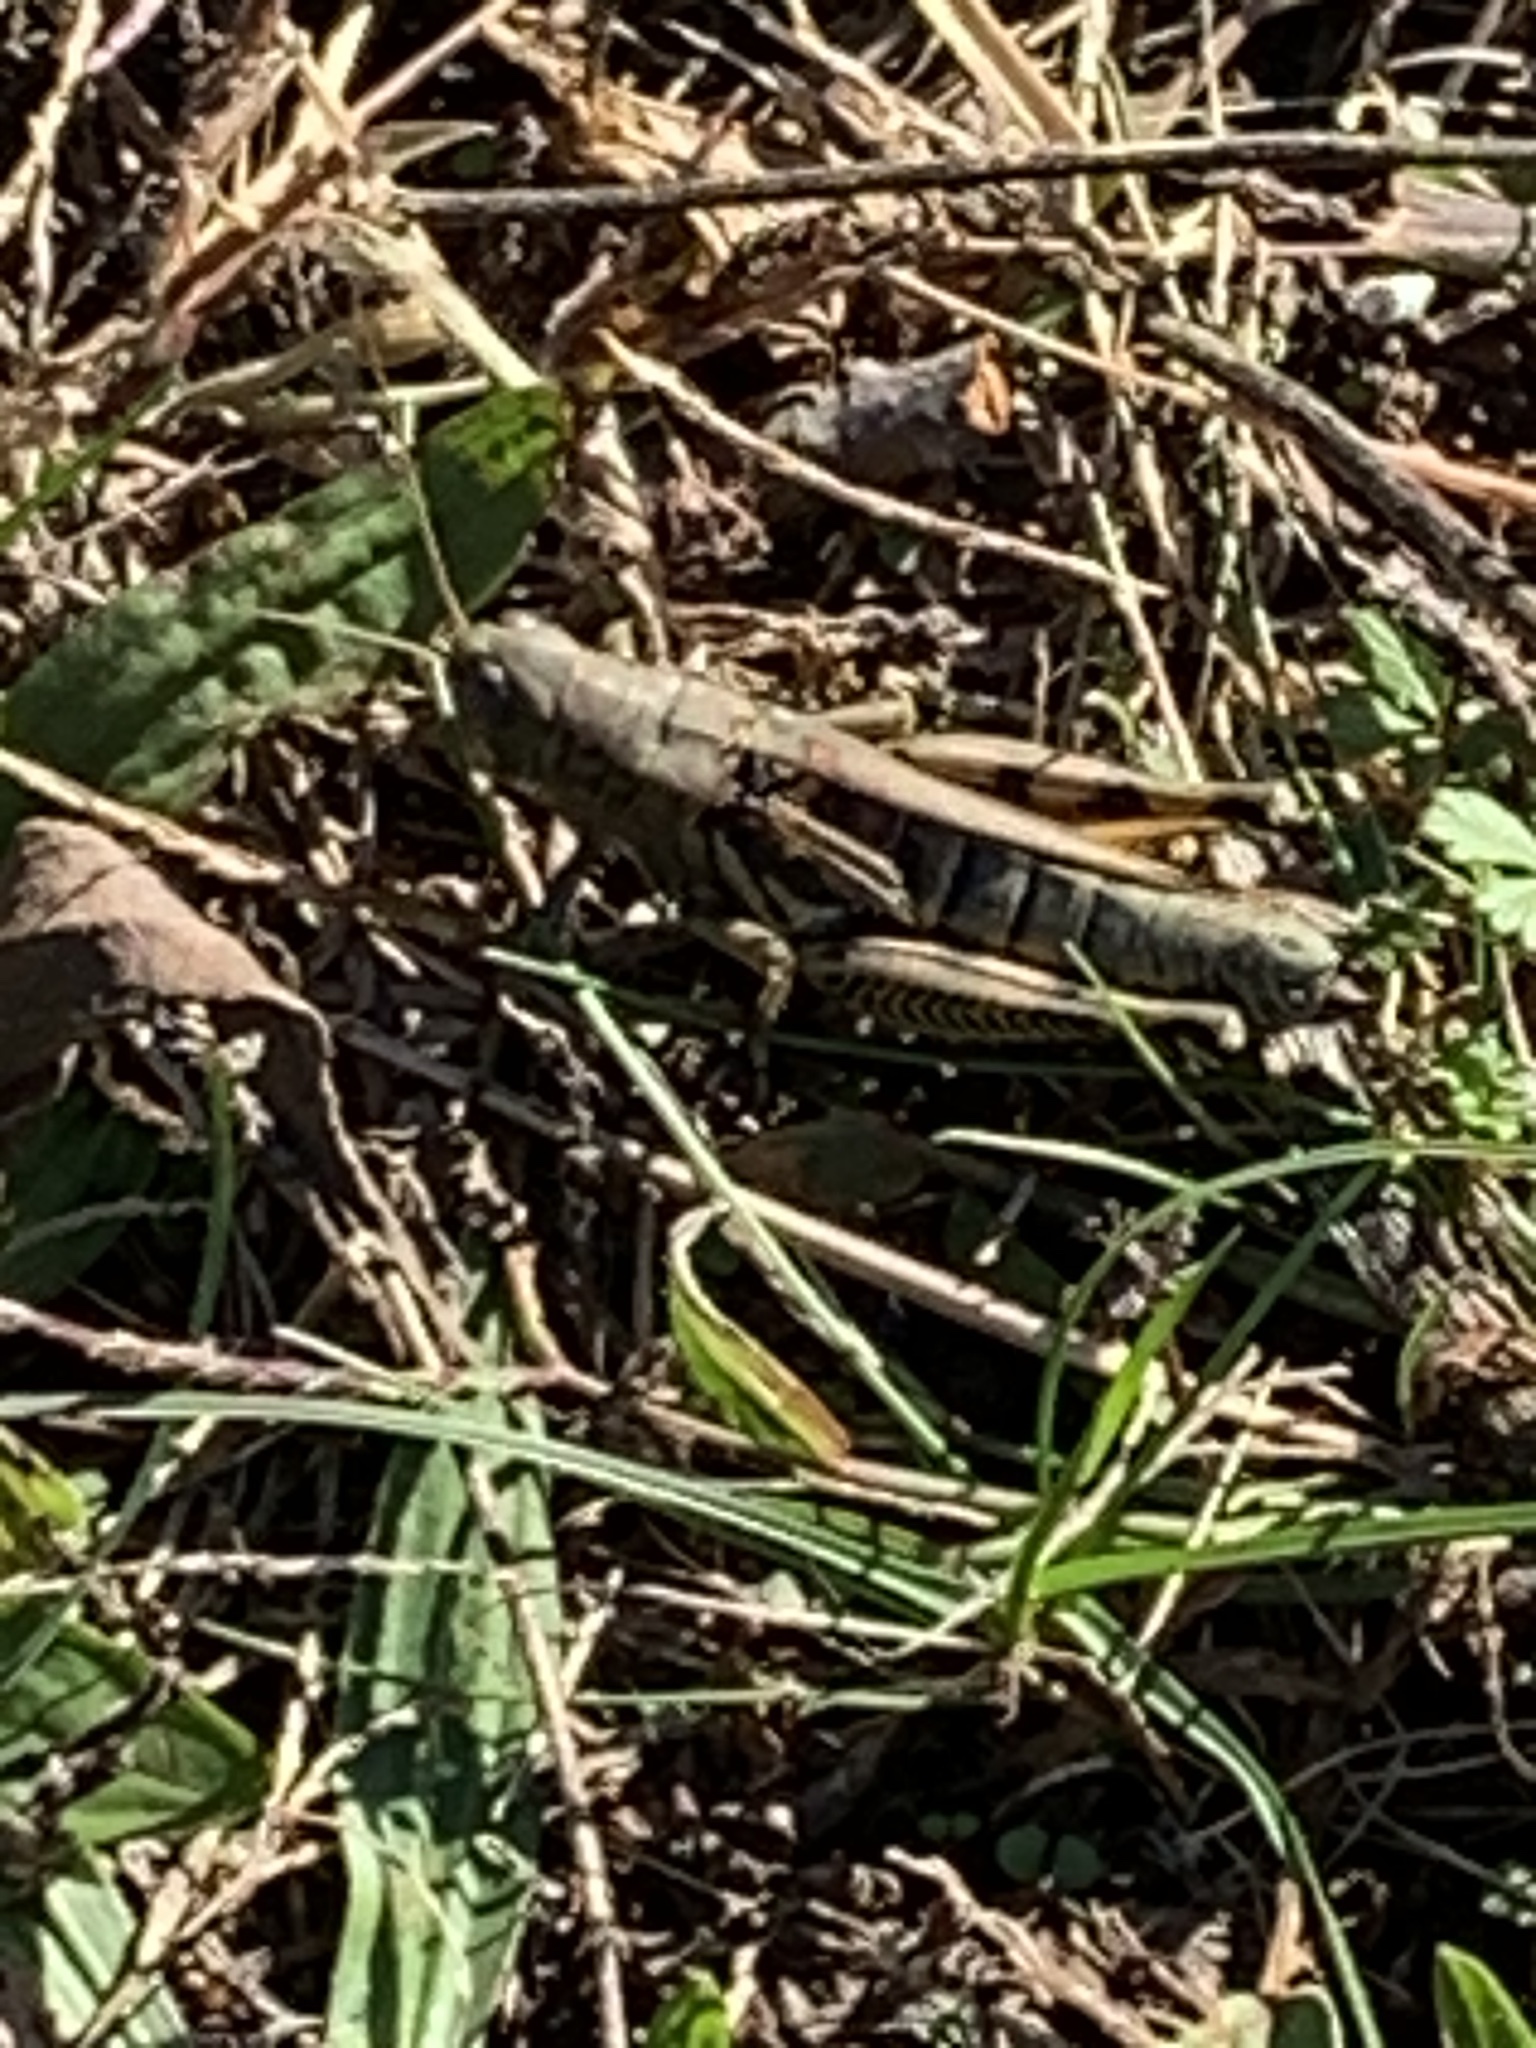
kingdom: Animalia
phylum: Arthropoda
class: Insecta
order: Orthoptera
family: Acrididae
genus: Melanoplus
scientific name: Melanoplus differentialis
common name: Differential grasshopper
